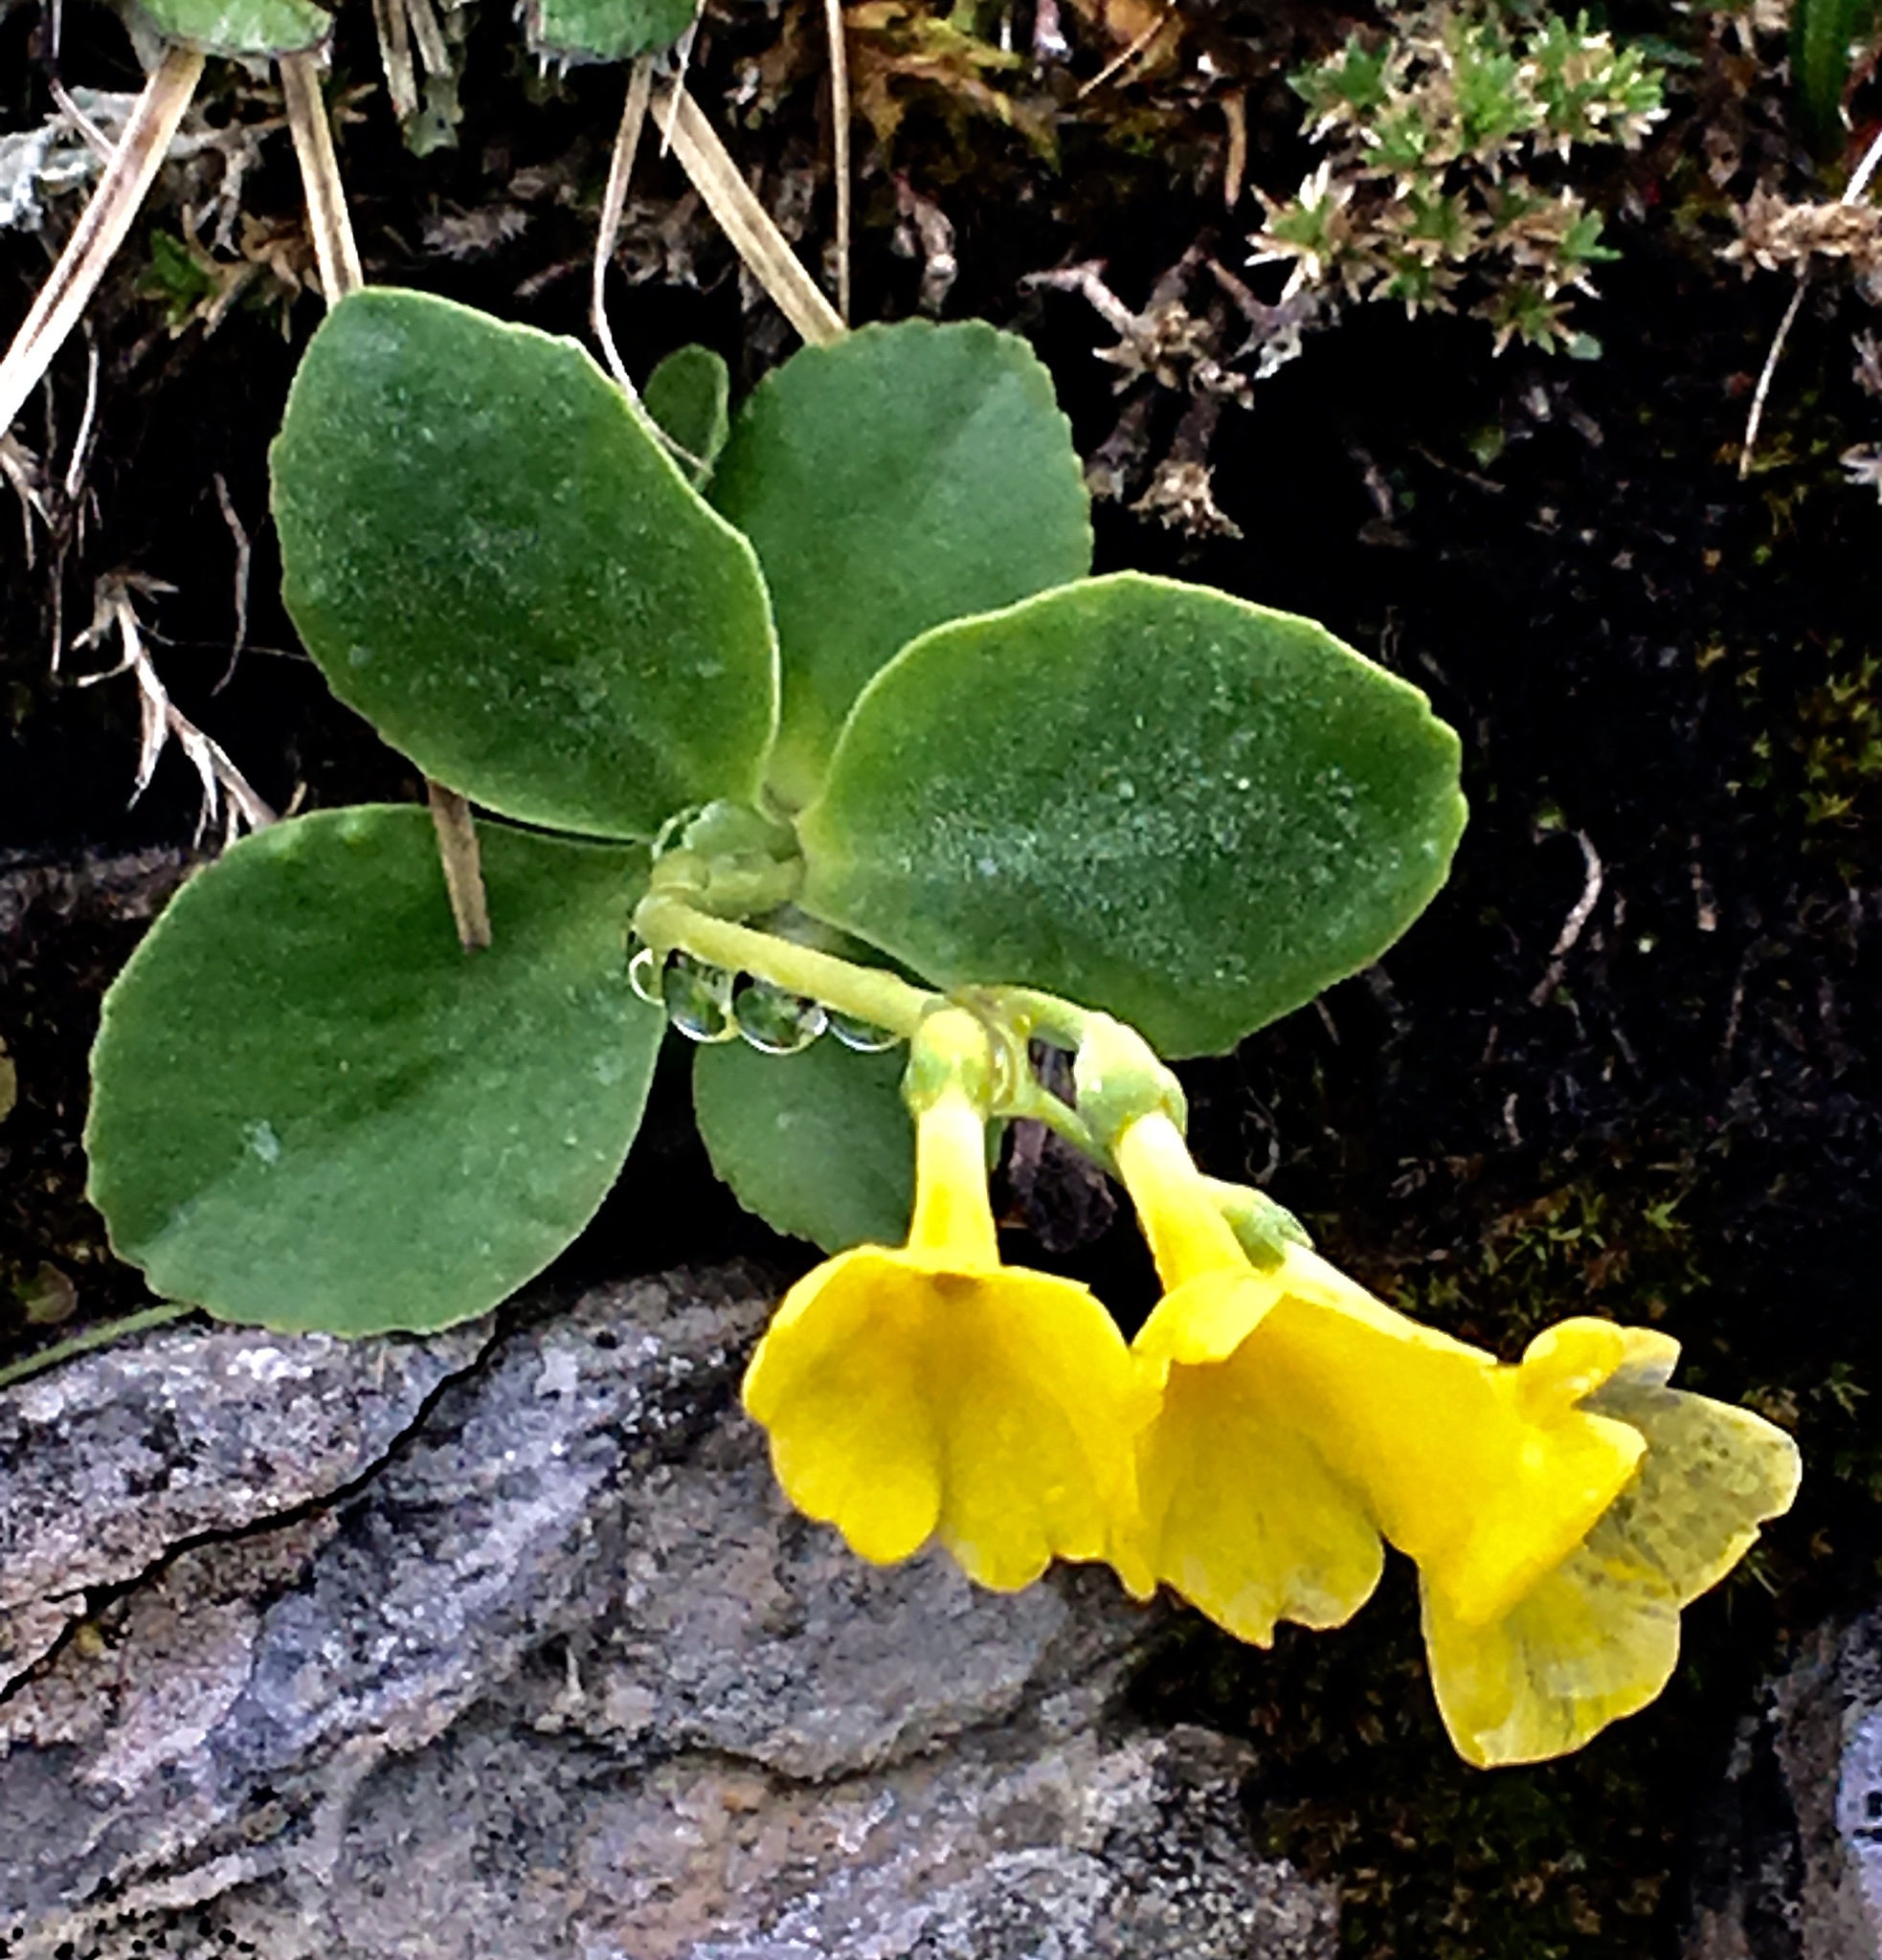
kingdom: Plantae
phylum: Tracheophyta
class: Magnoliopsida
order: Ericales
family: Primulaceae
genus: Primula
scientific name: Primula auricula
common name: Auricula
